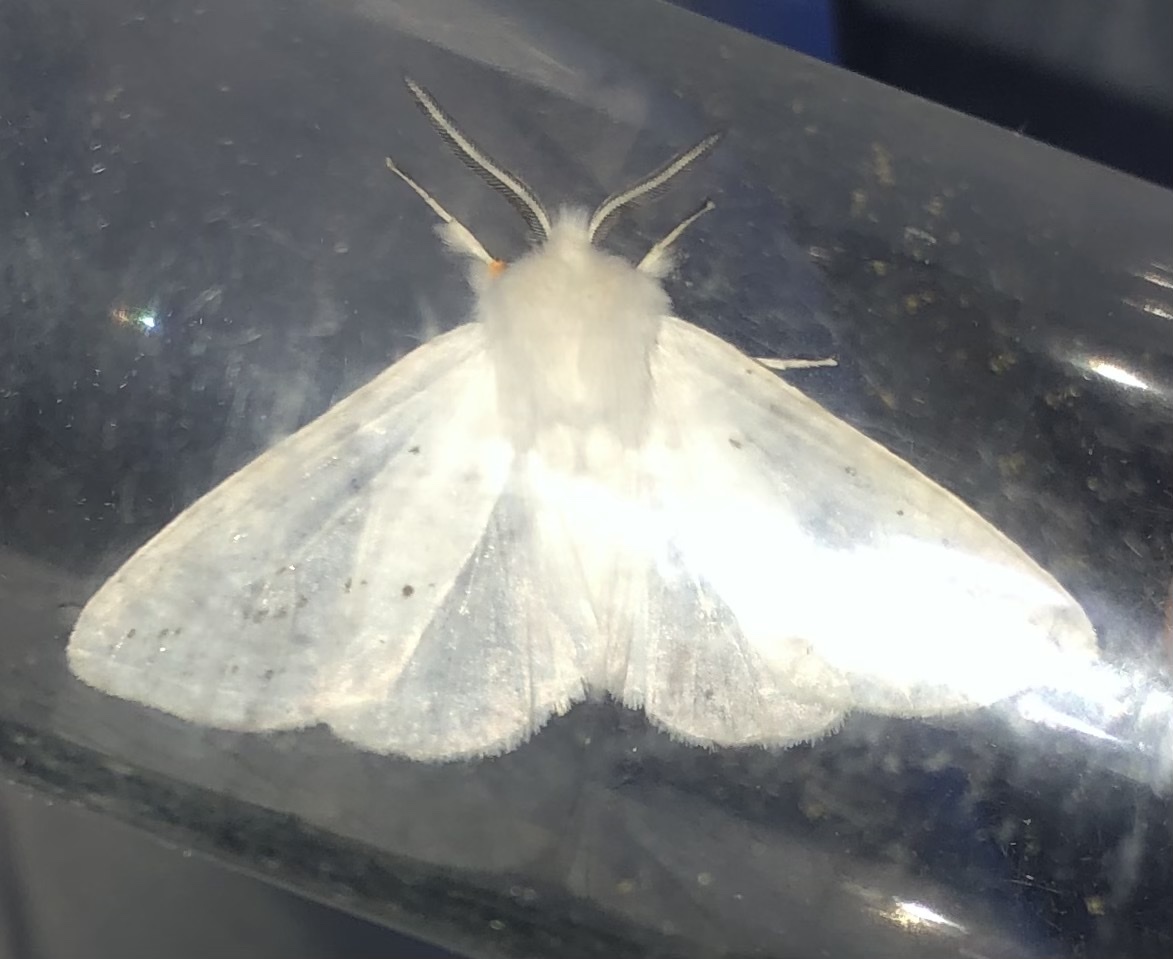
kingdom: Animalia
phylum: Arthropoda
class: Insecta
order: Lepidoptera
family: Erebidae
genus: Spilosoma
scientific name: Spilosoma congrua
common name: Agreeable tiger moth
